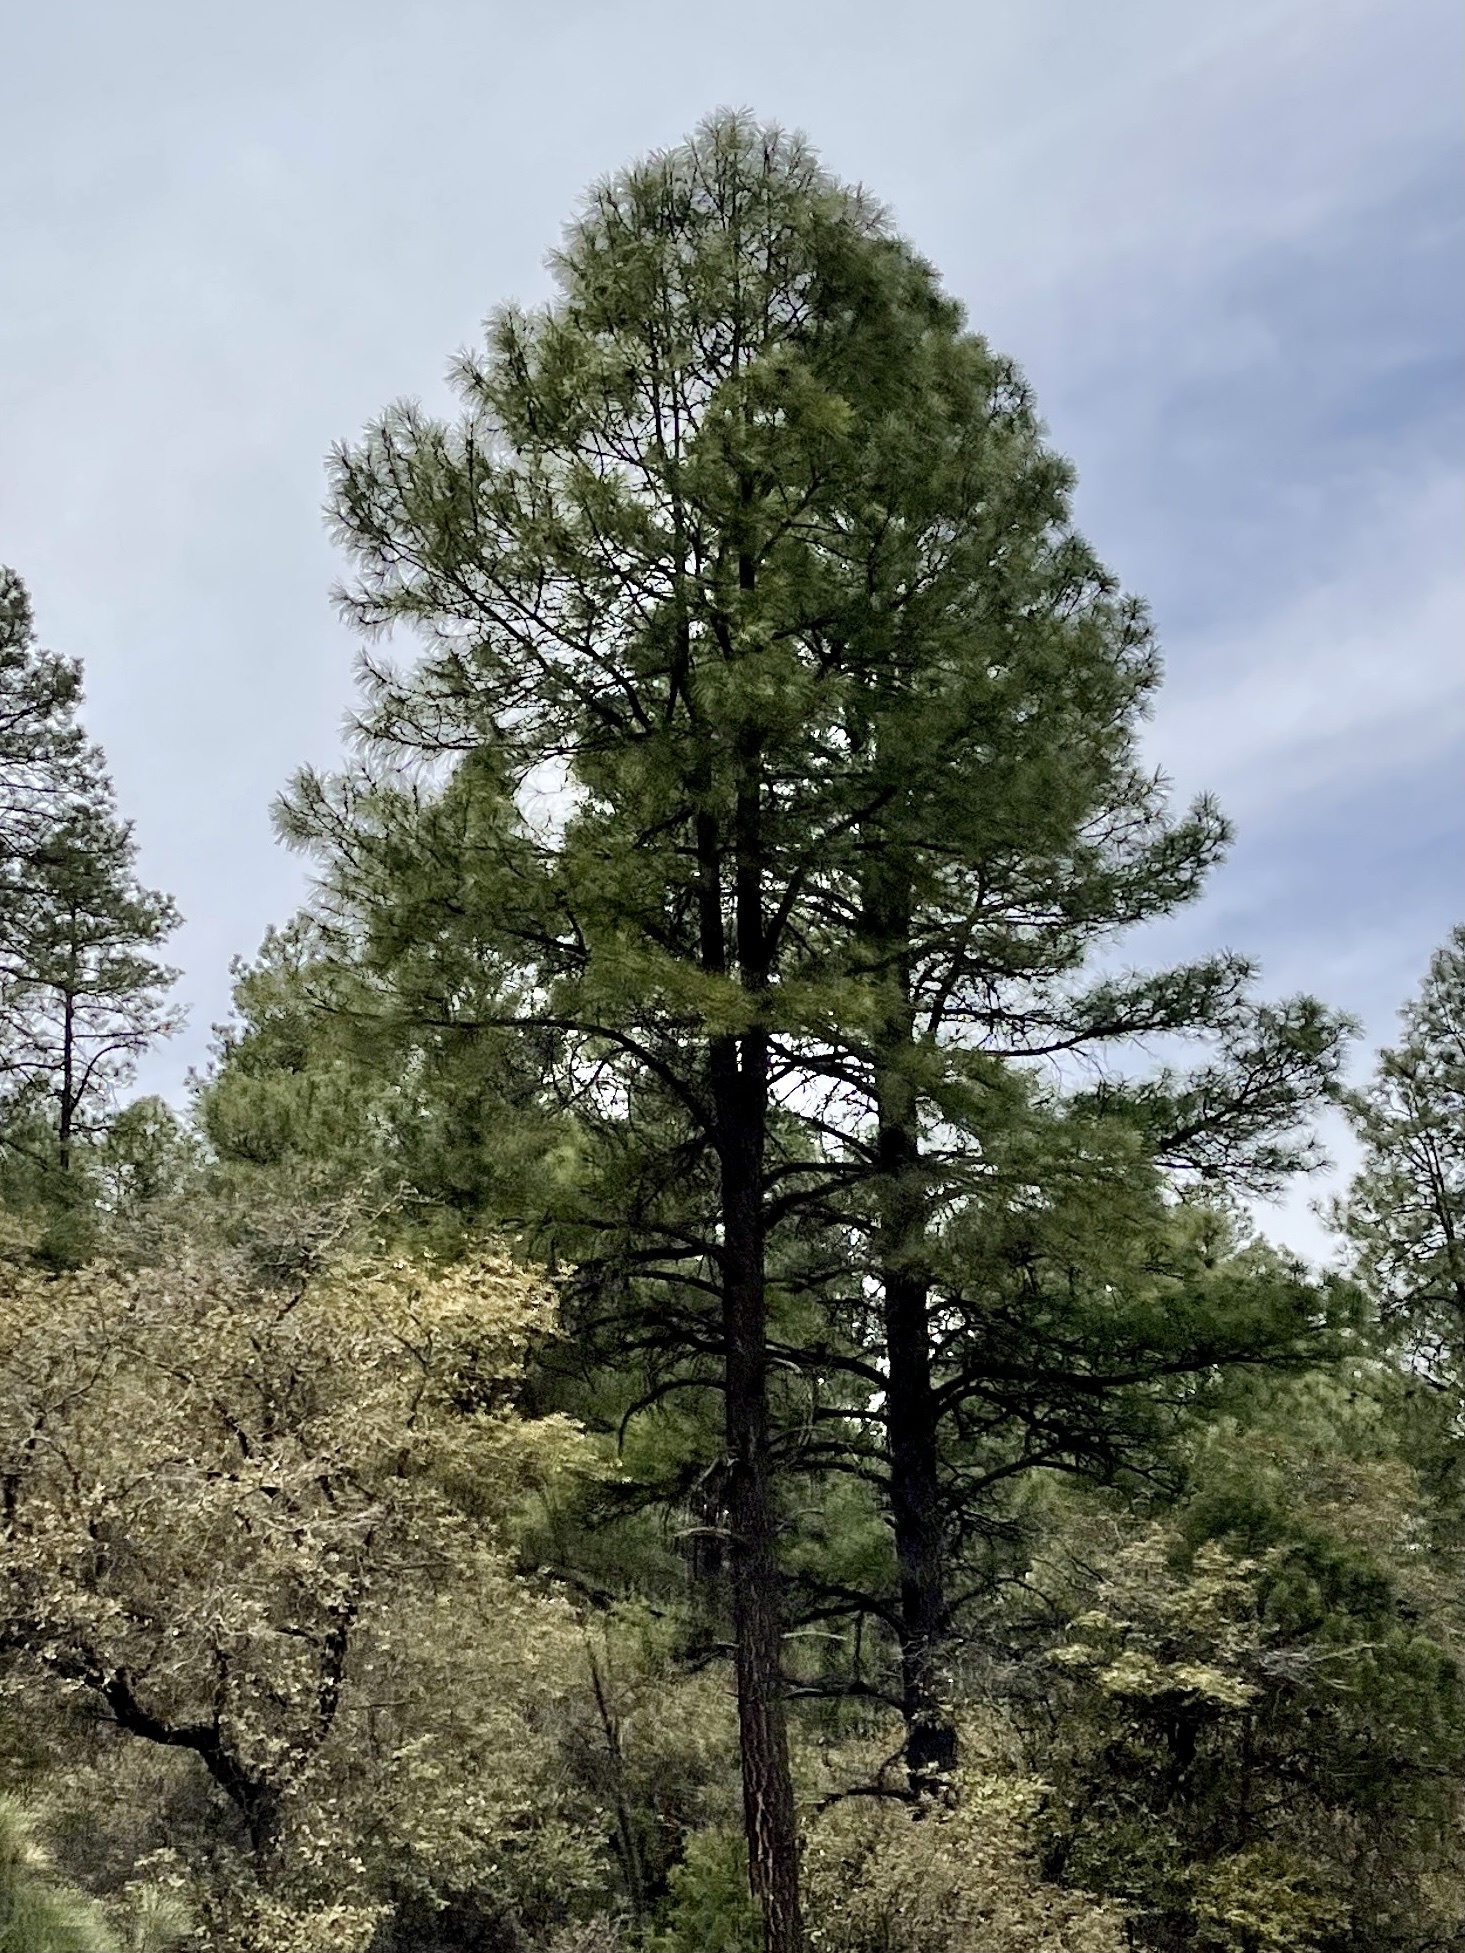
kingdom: Plantae
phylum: Tracheophyta
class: Pinopsida
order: Pinales
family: Pinaceae
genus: Pinus
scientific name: Pinus ponderosa
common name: Western yellow-pine
